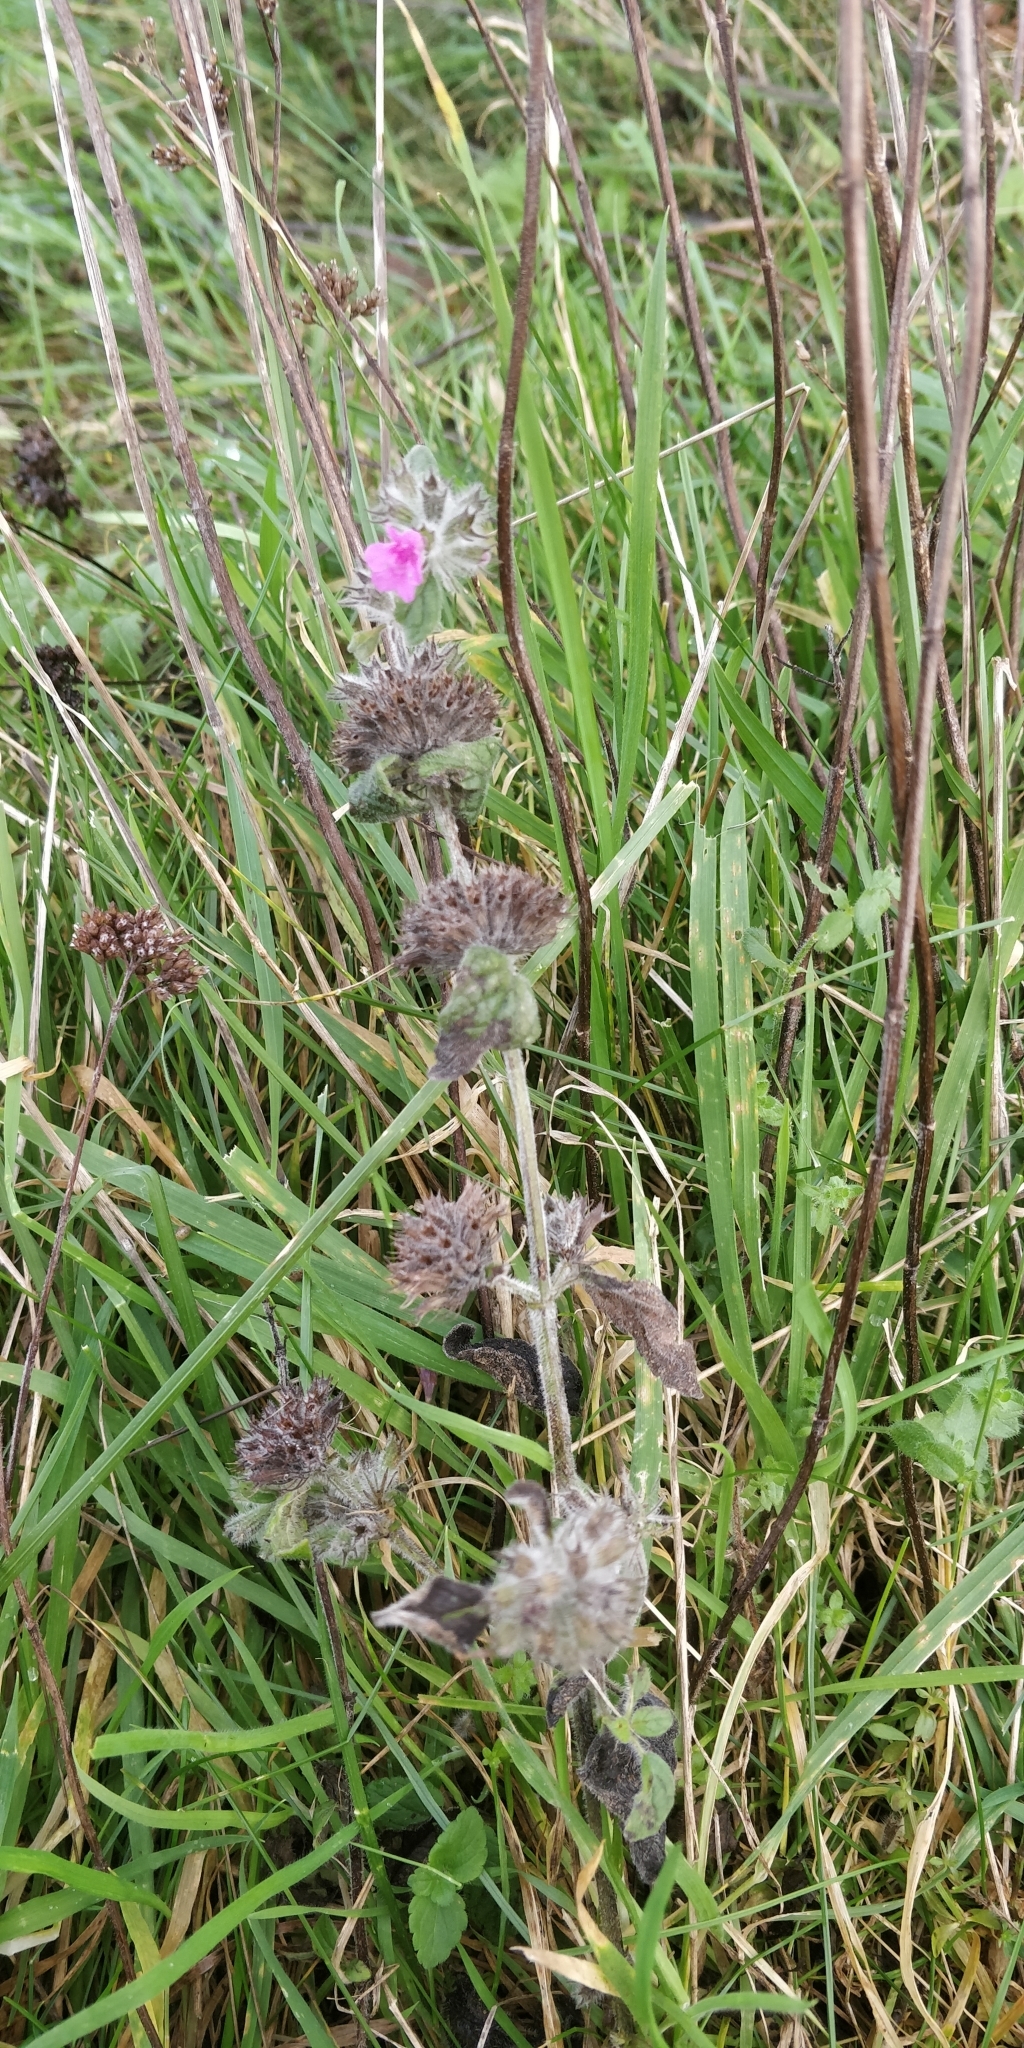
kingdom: Plantae
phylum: Tracheophyta
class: Magnoliopsida
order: Lamiales
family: Lamiaceae
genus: Clinopodium
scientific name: Clinopodium vulgare
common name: Wild basil
